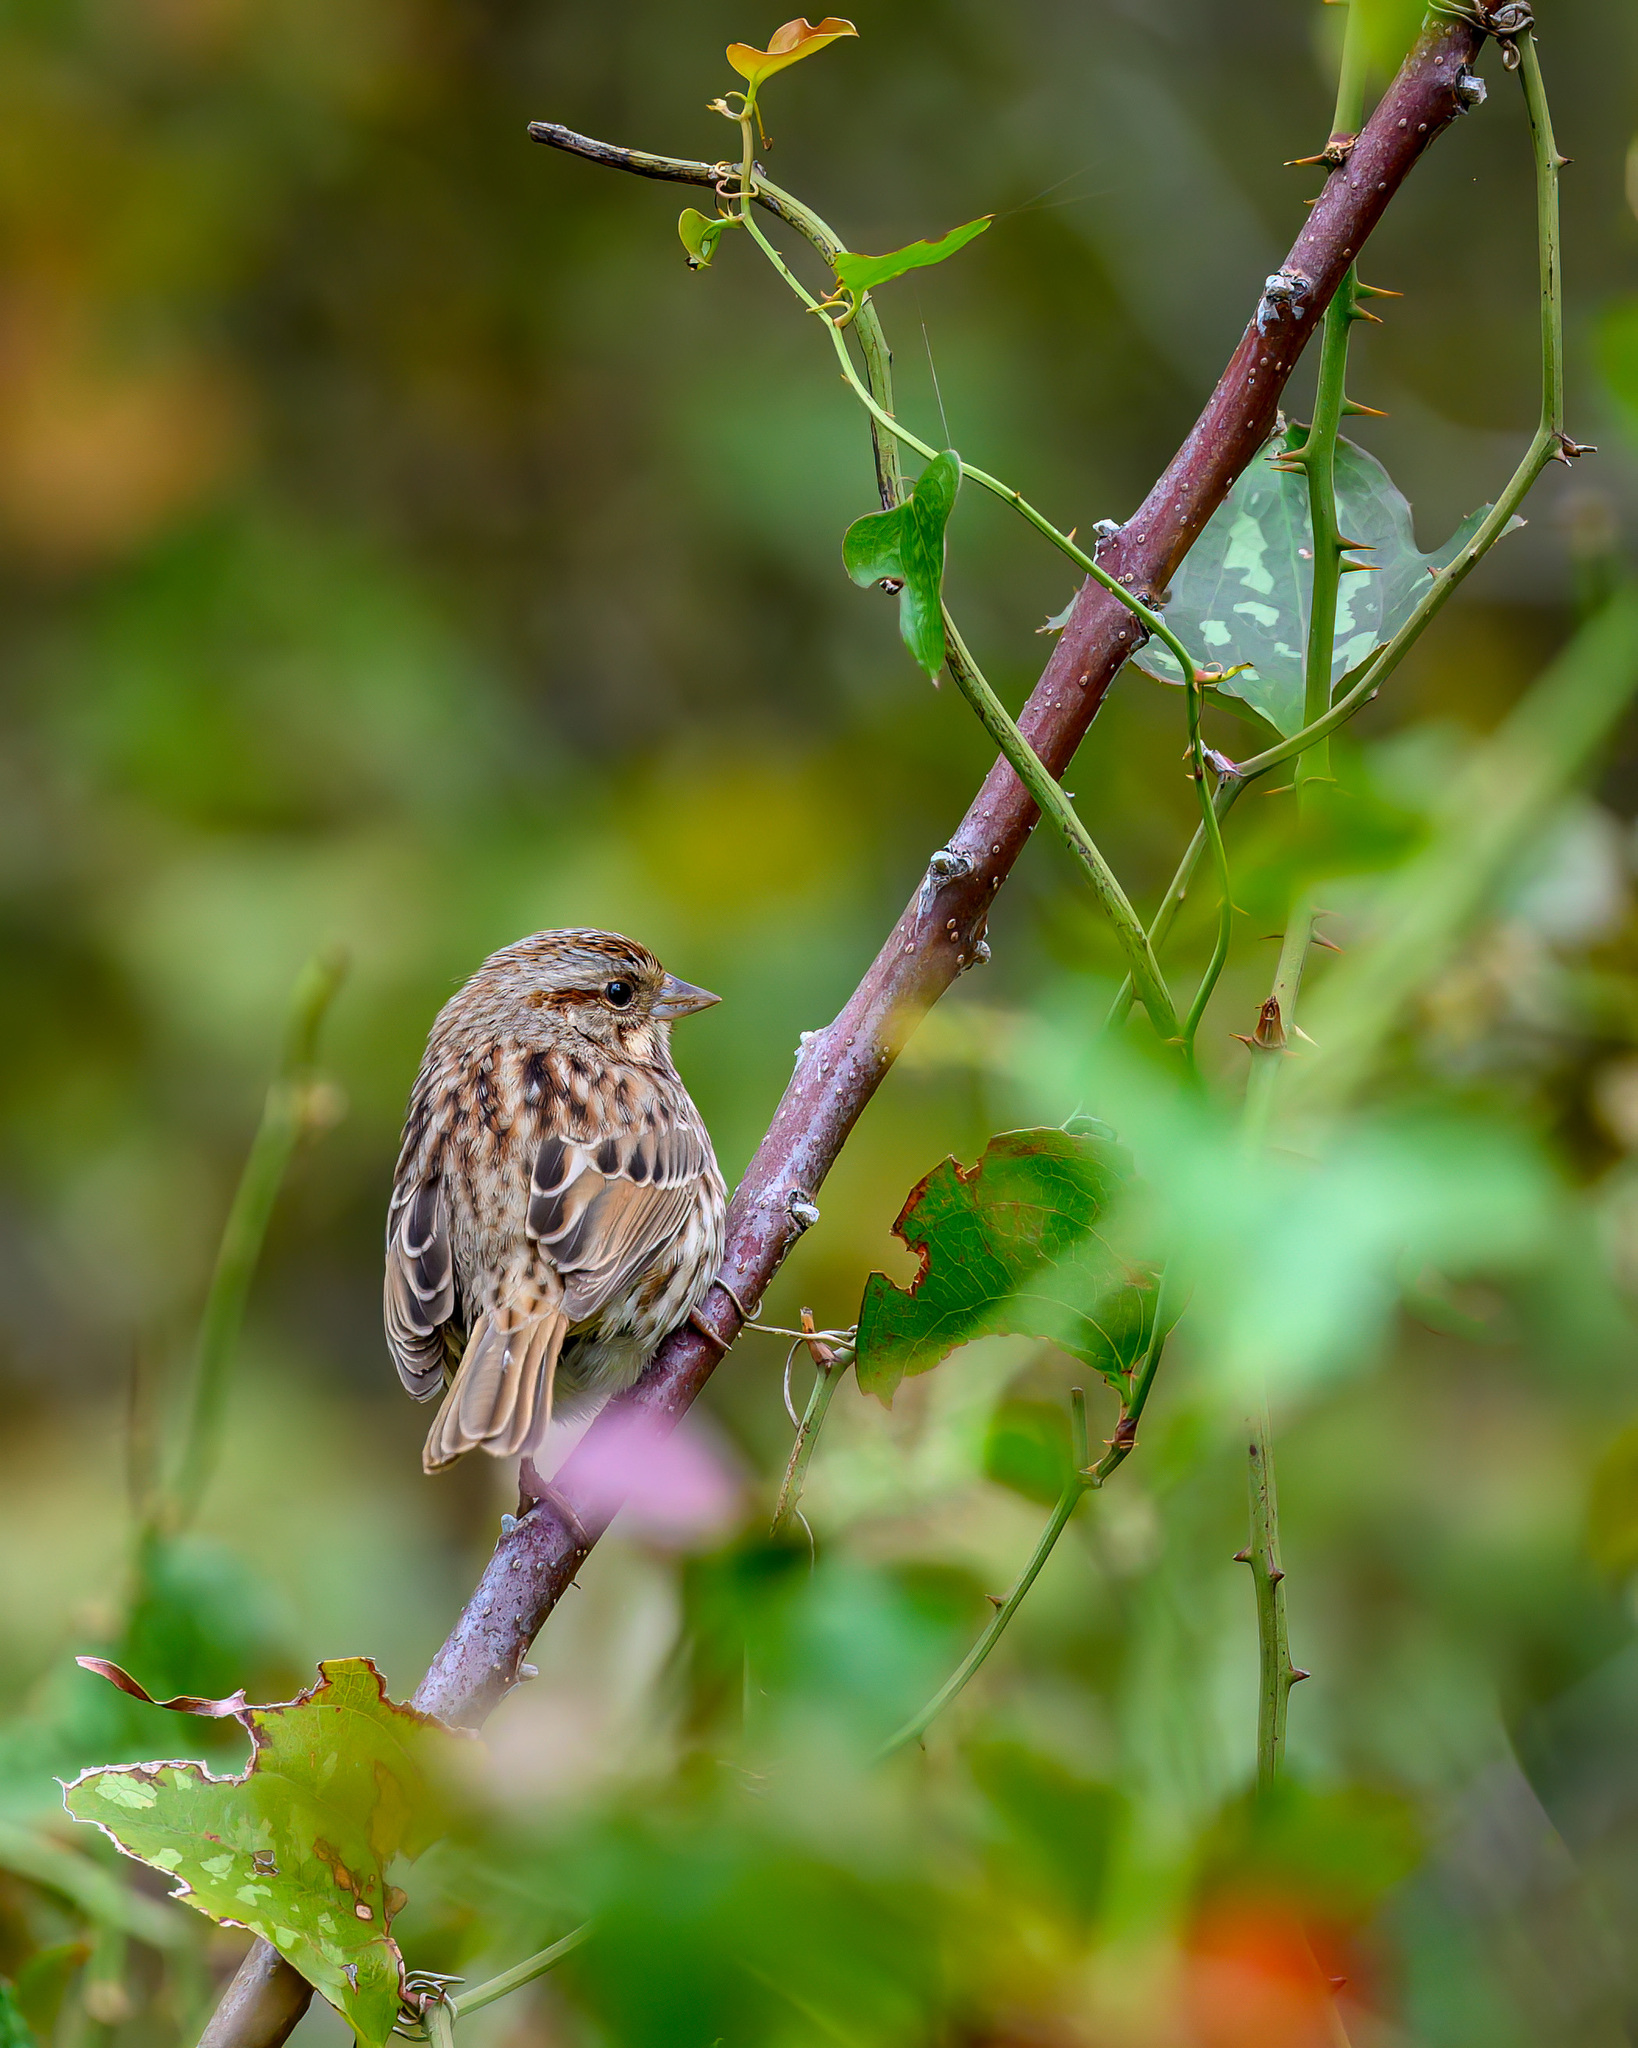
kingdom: Animalia
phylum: Chordata
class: Aves
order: Passeriformes
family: Passerellidae
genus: Melospiza
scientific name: Melospiza melodia
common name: Song sparrow
